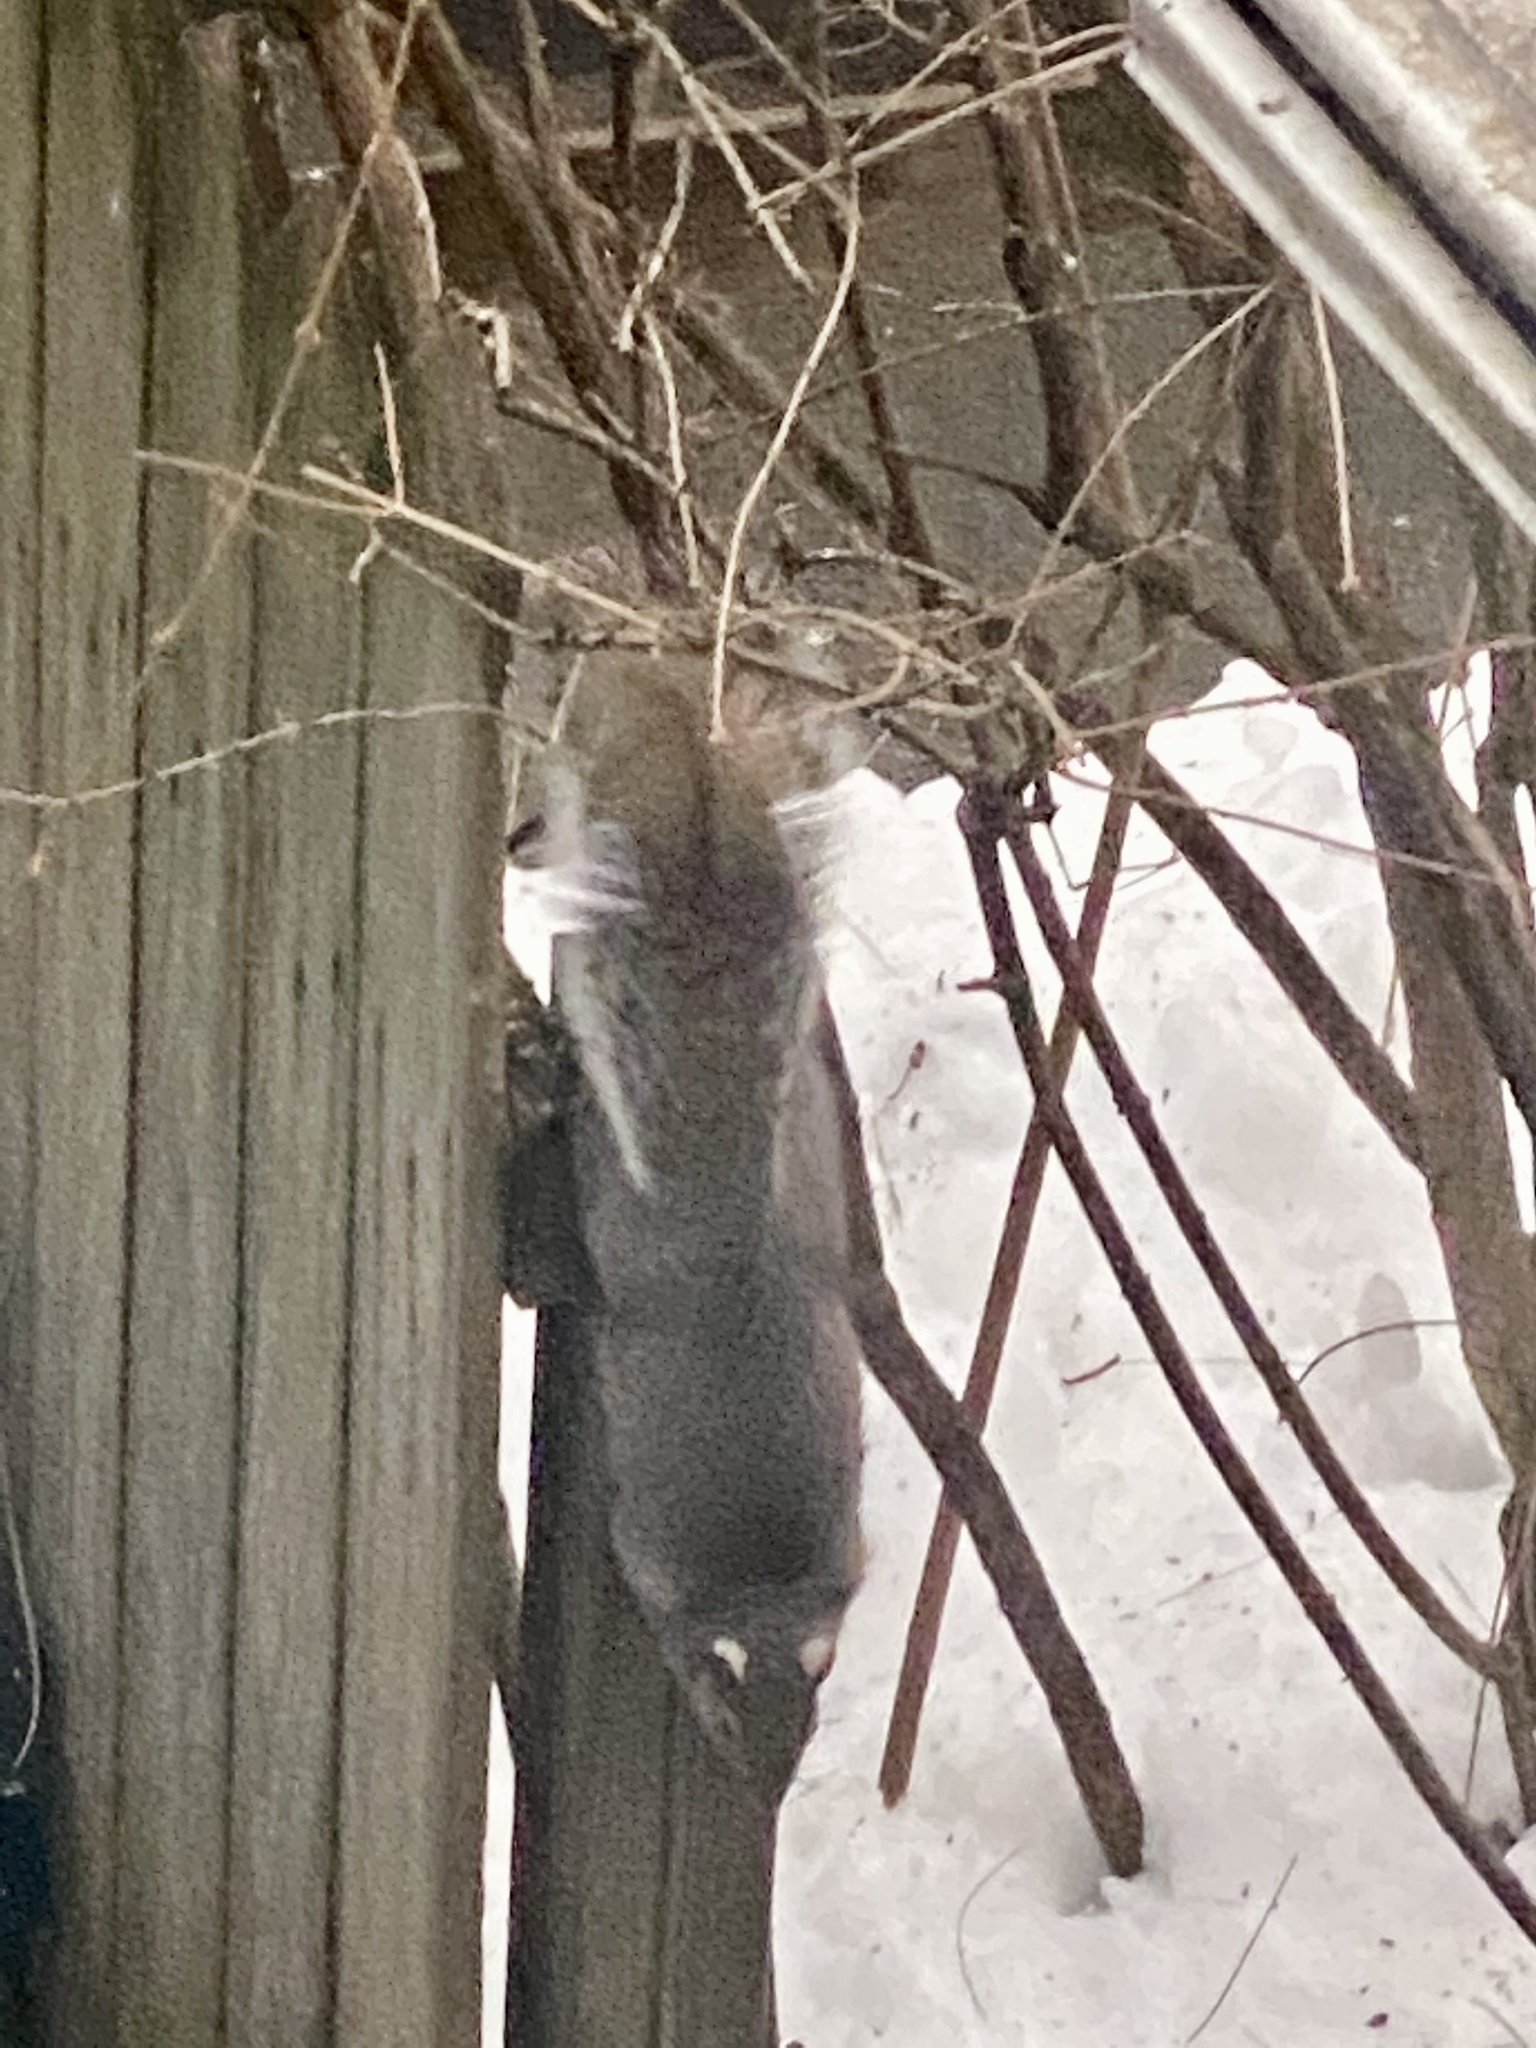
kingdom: Animalia
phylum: Chordata
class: Mammalia
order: Rodentia
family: Sciuridae
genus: Sciurus
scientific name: Sciurus carolinensis
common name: Eastern gray squirrel
